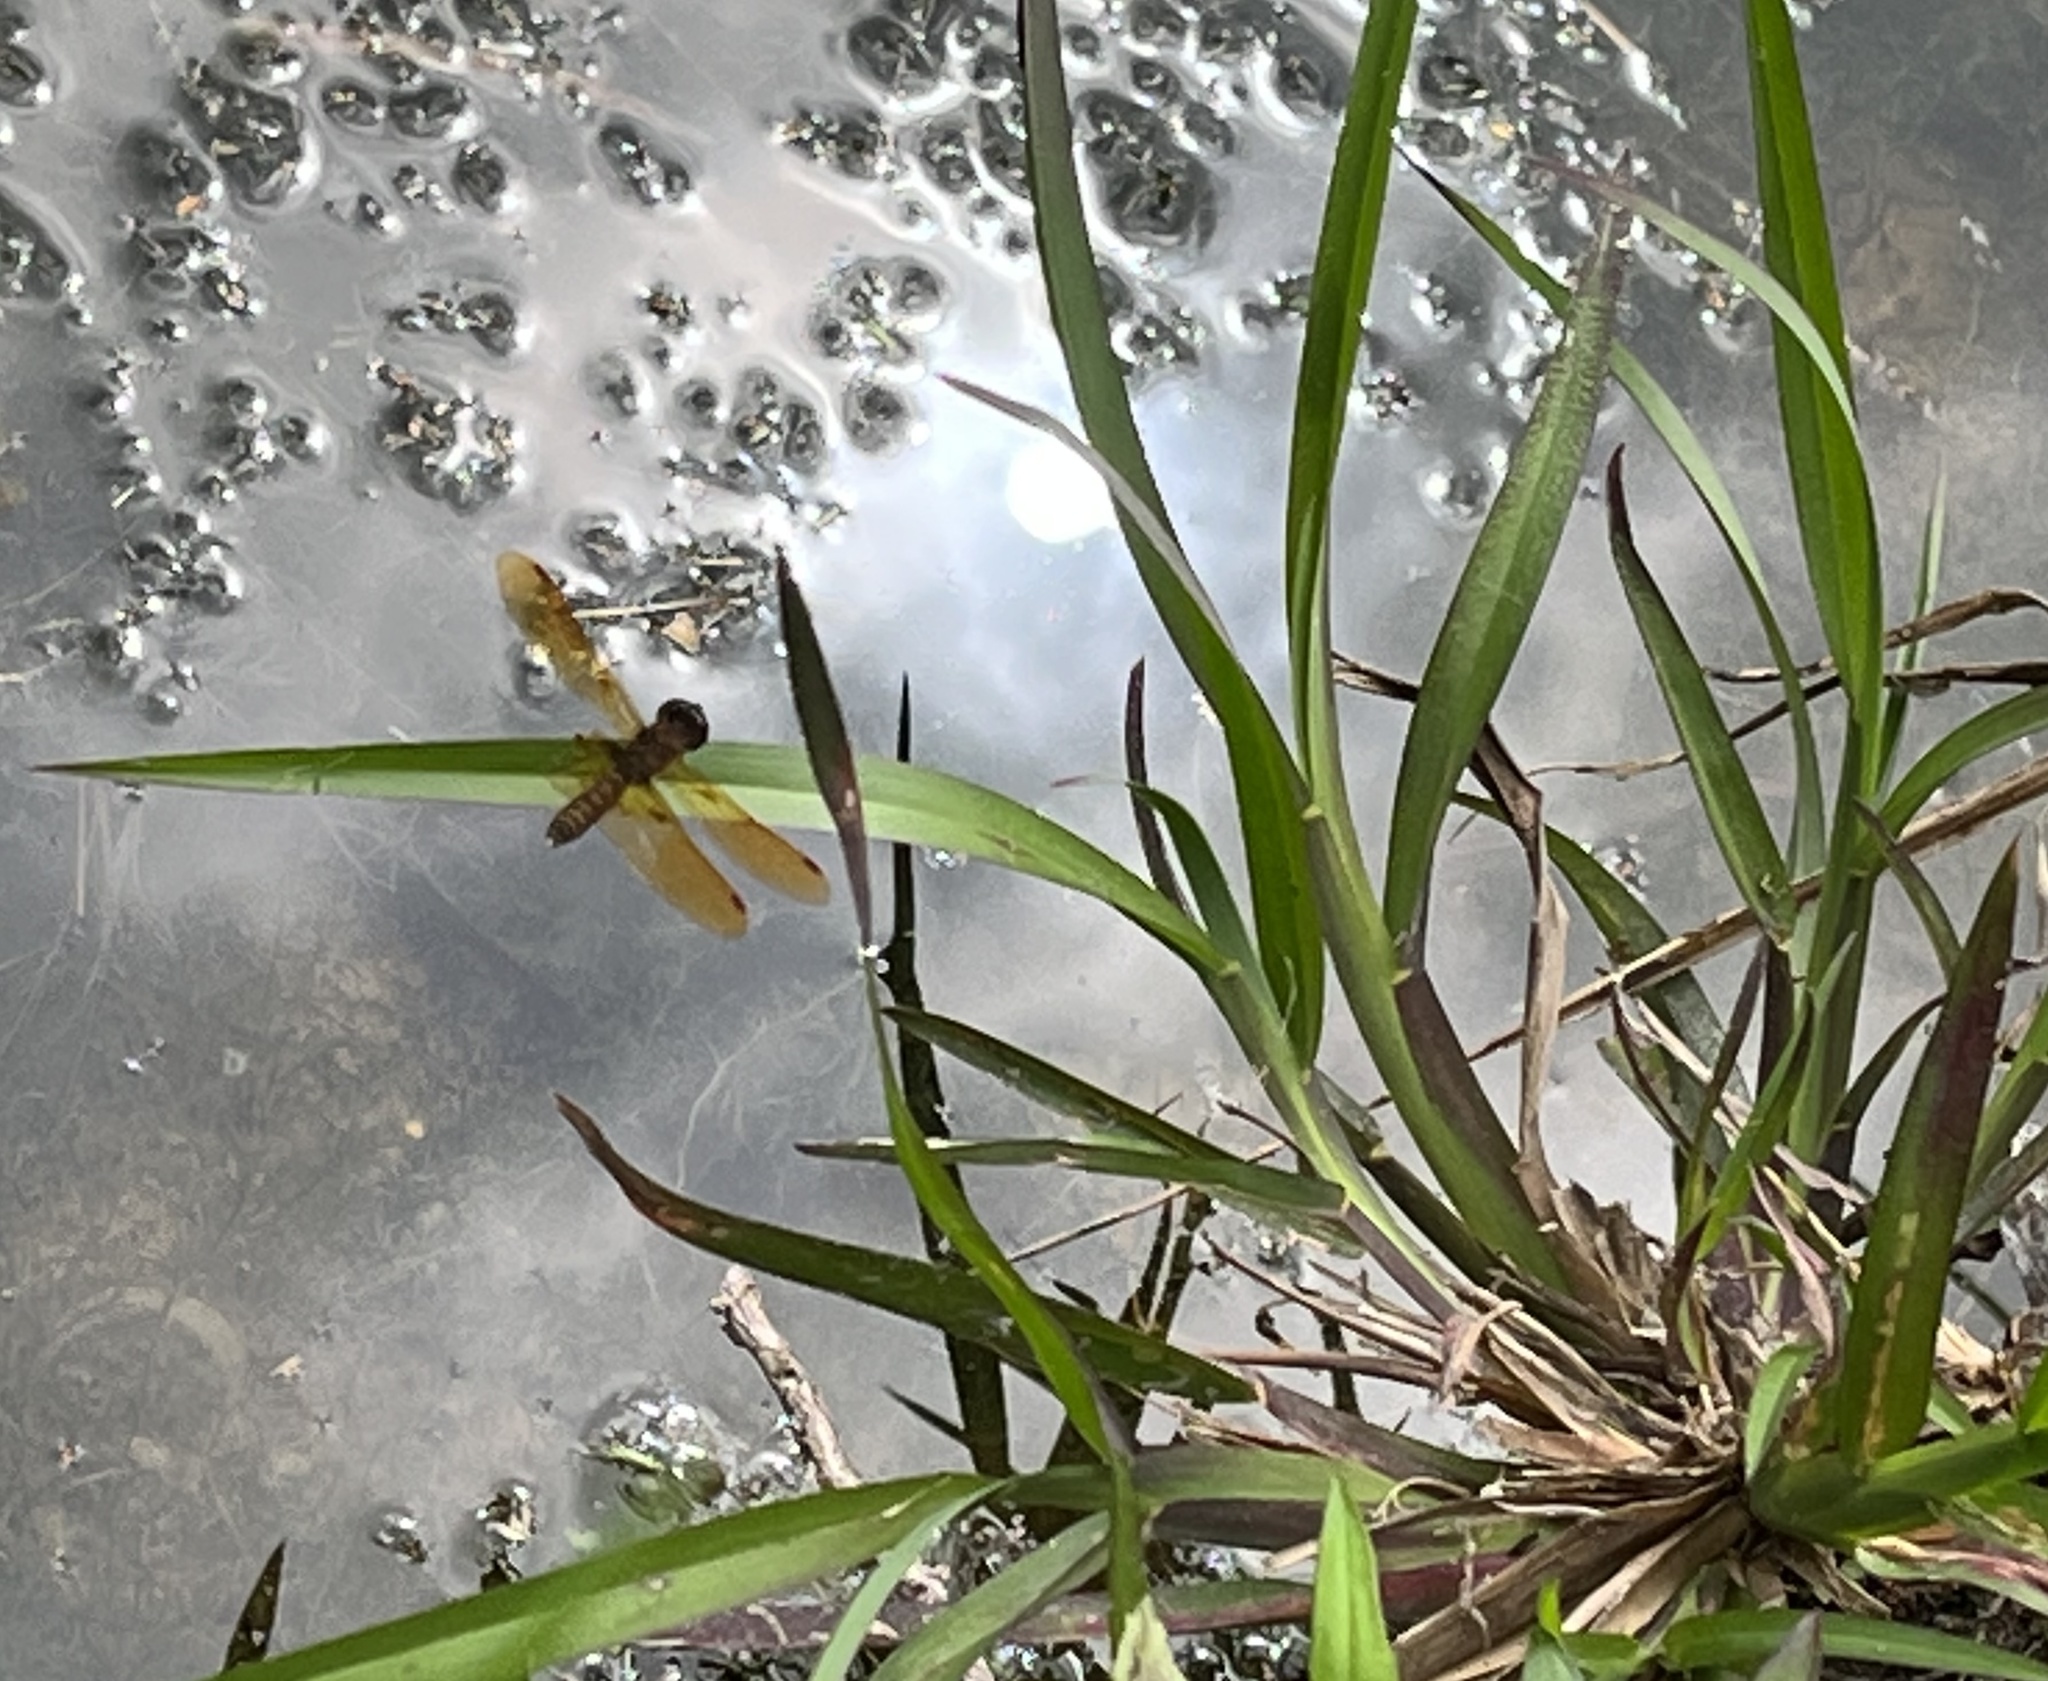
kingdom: Animalia
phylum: Arthropoda
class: Insecta
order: Odonata
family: Libellulidae
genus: Perithemis
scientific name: Perithemis tenera
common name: Eastern amberwing
